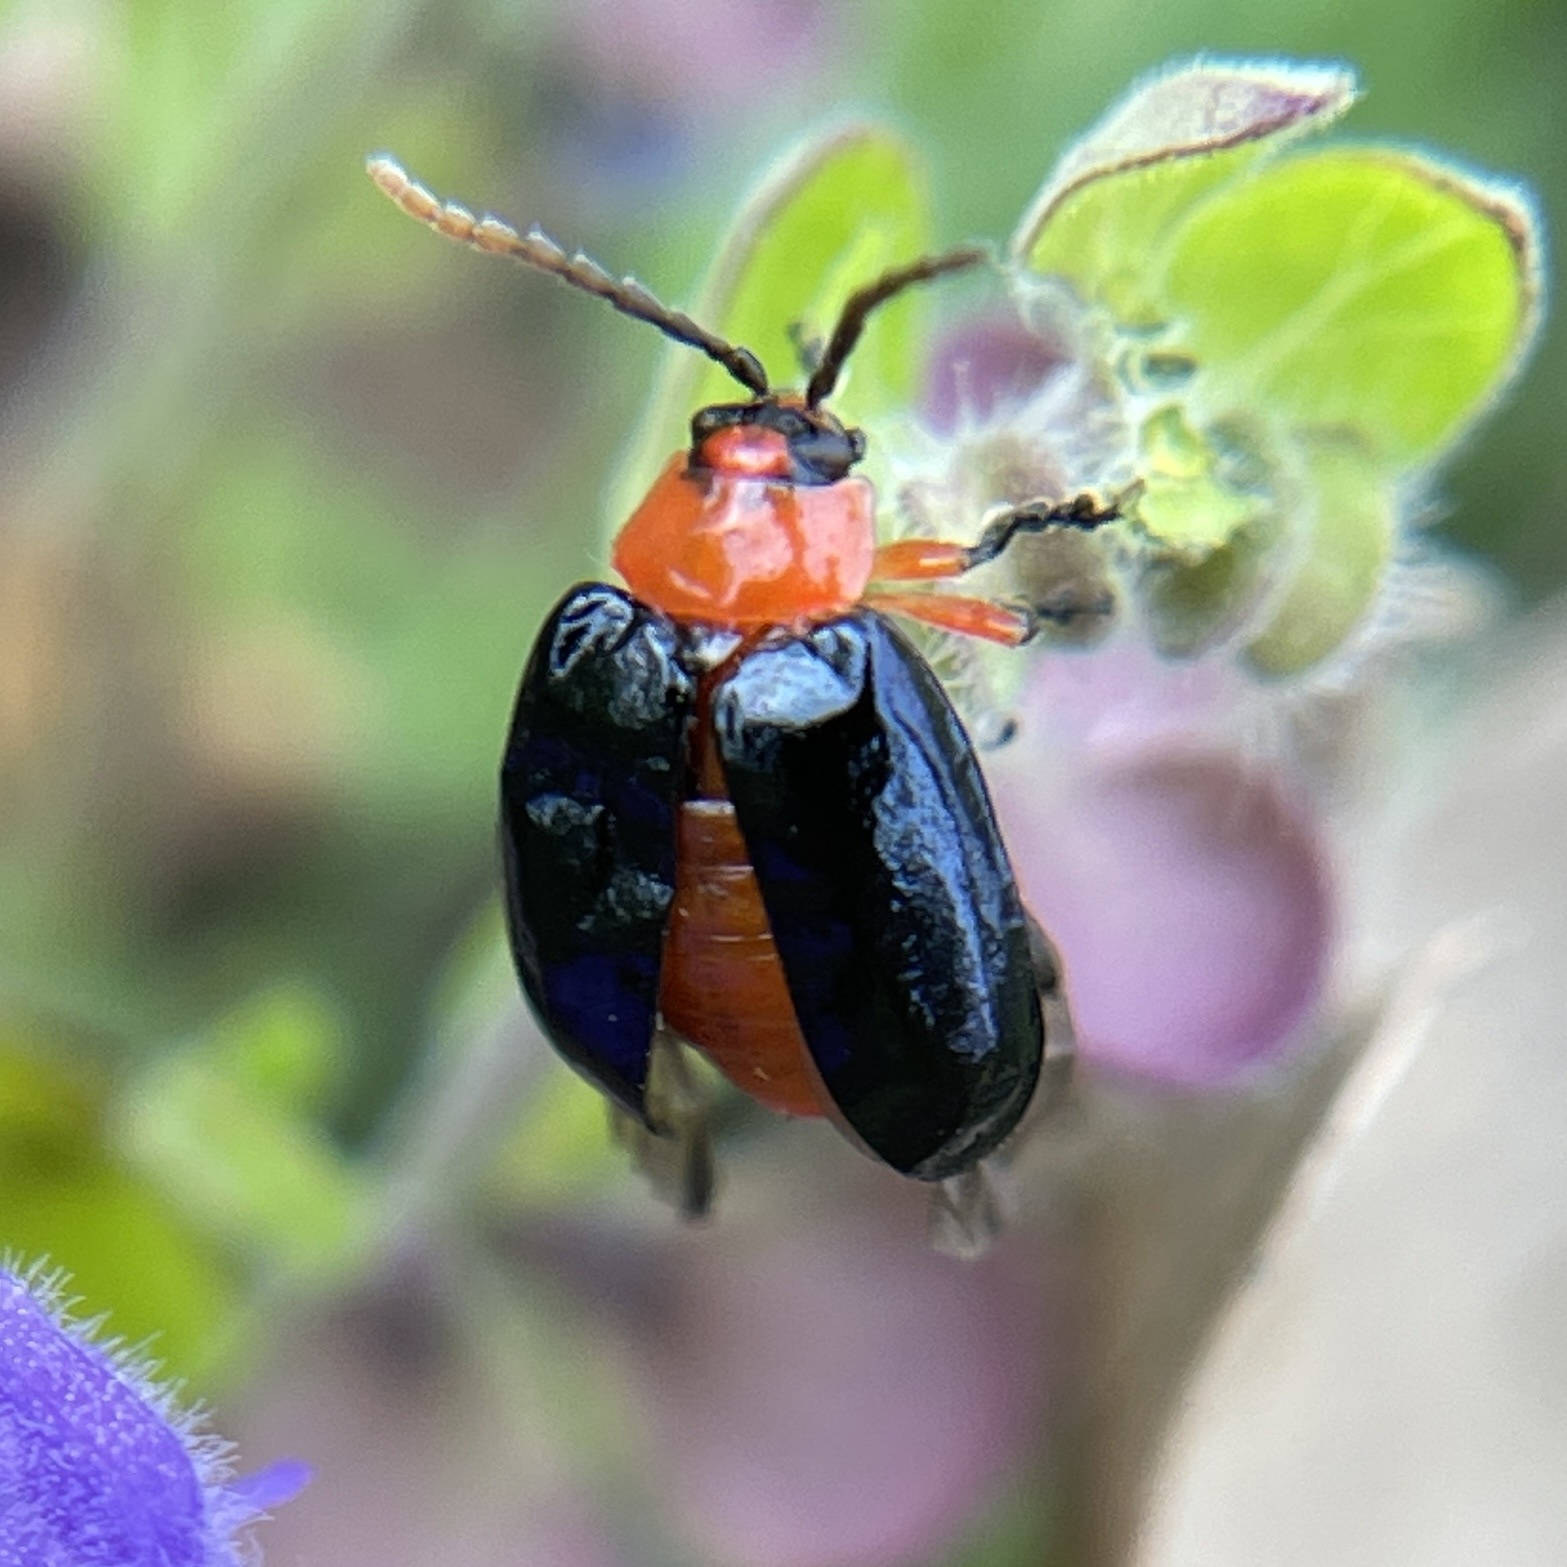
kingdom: Animalia
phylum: Arthropoda
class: Insecta
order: Coleoptera
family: Chrysomelidae
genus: Asphaera
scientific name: Asphaera lustrans
